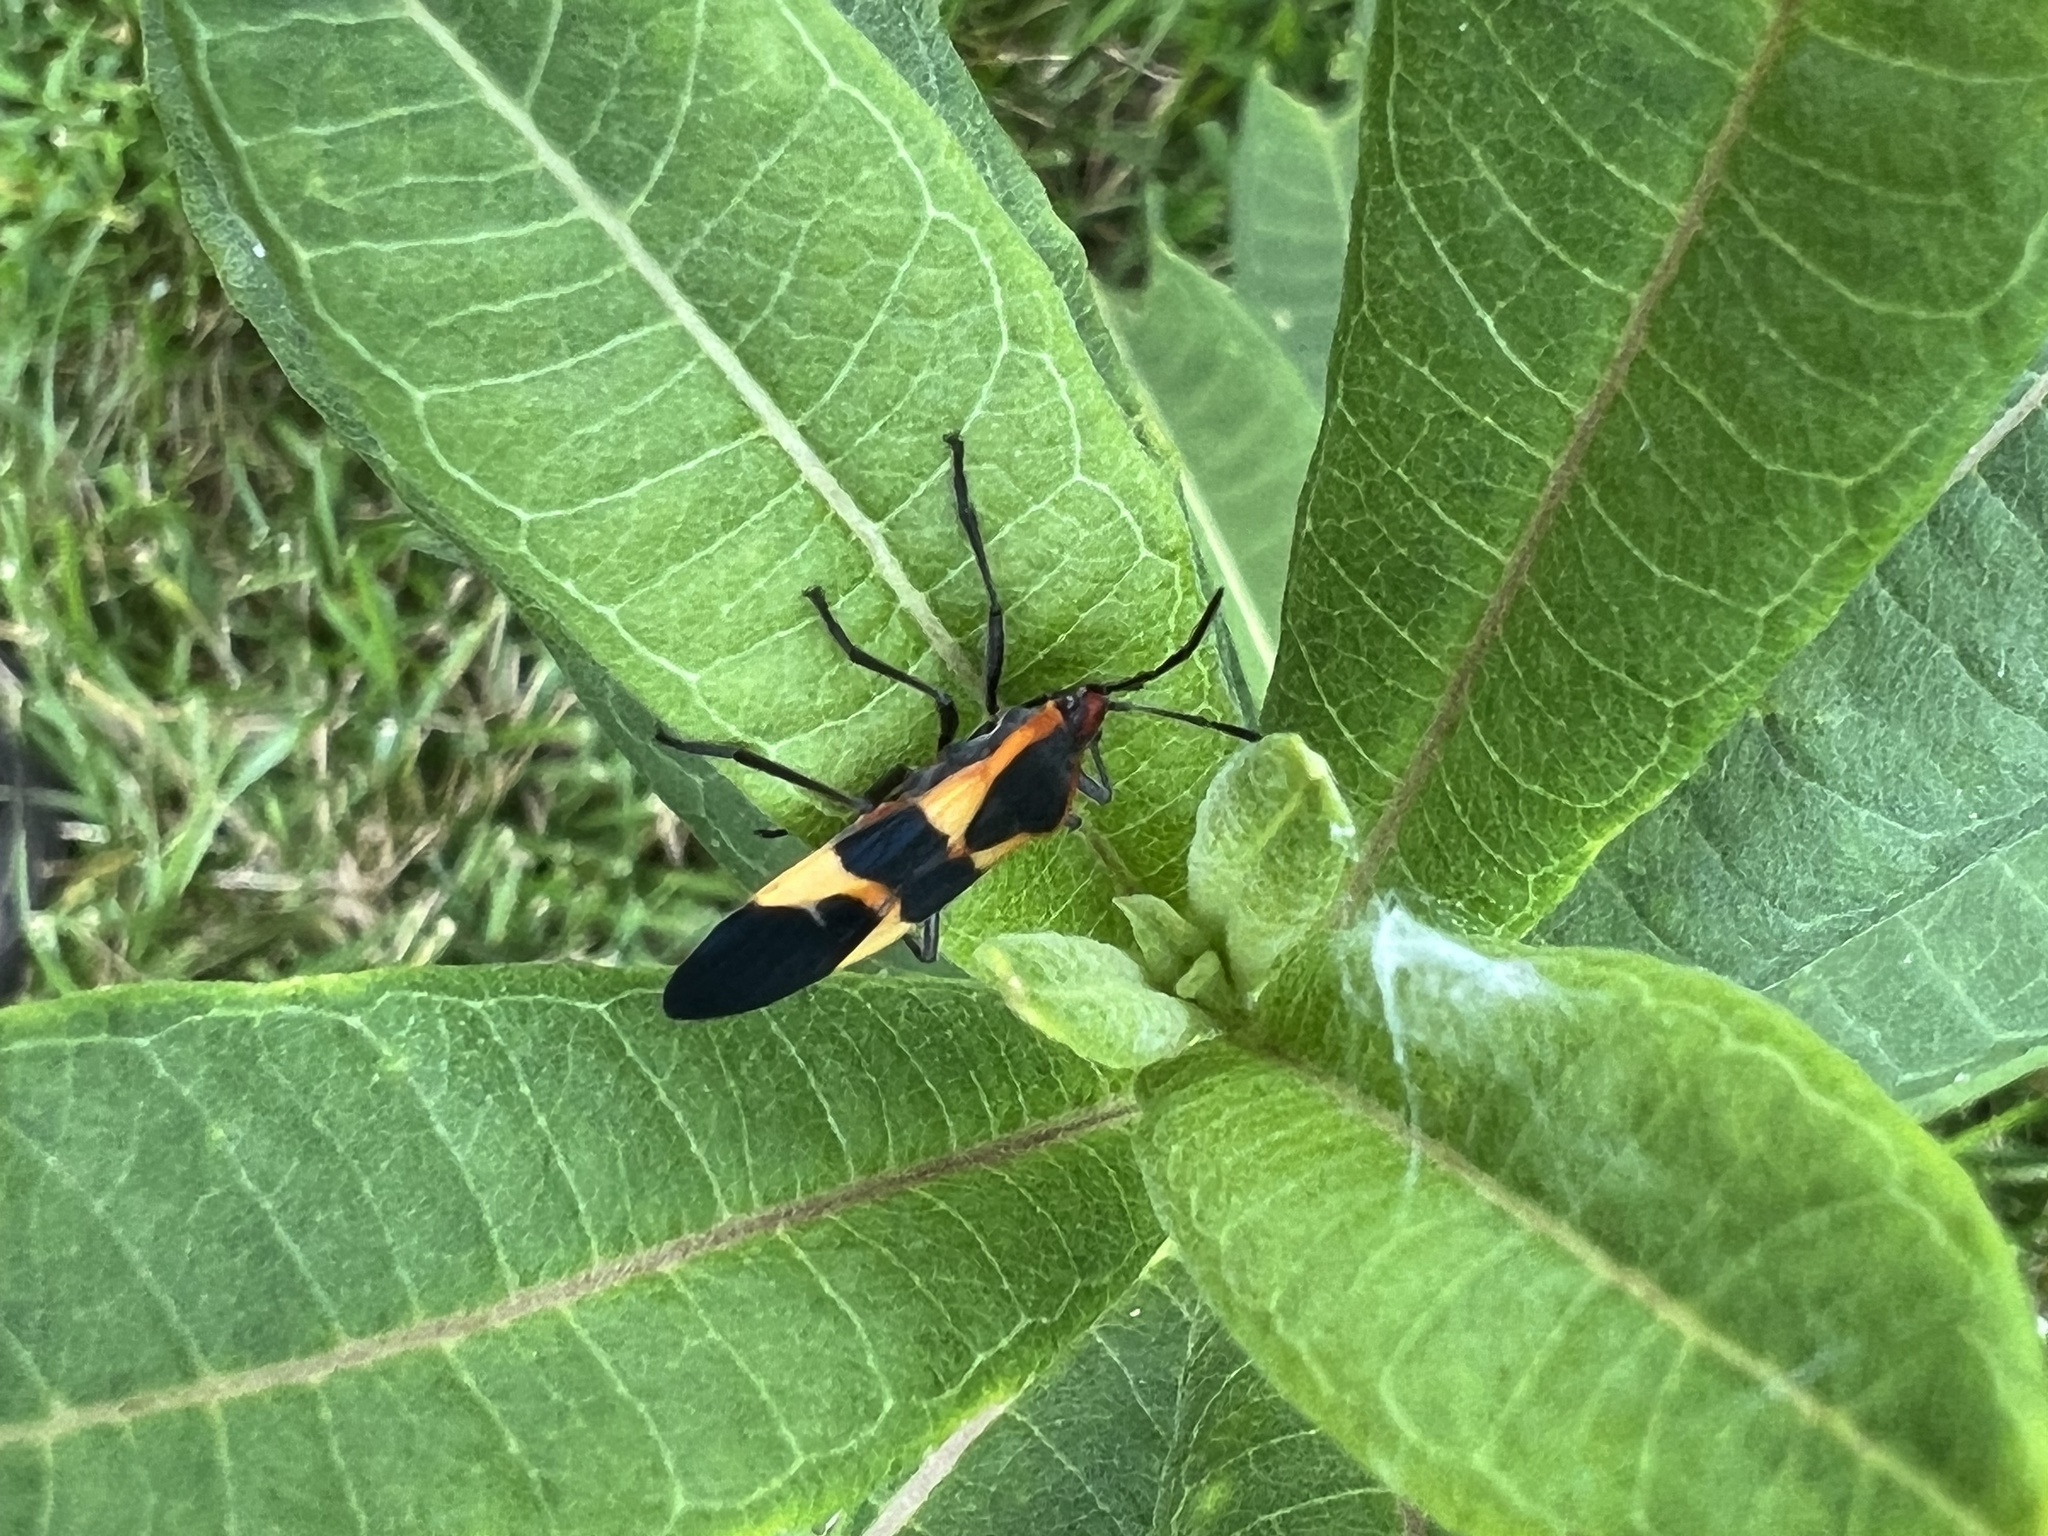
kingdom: Animalia
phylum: Arthropoda
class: Insecta
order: Hemiptera
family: Lygaeidae
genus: Oncopeltus
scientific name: Oncopeltus fasciatus
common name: Large milkweed bug
